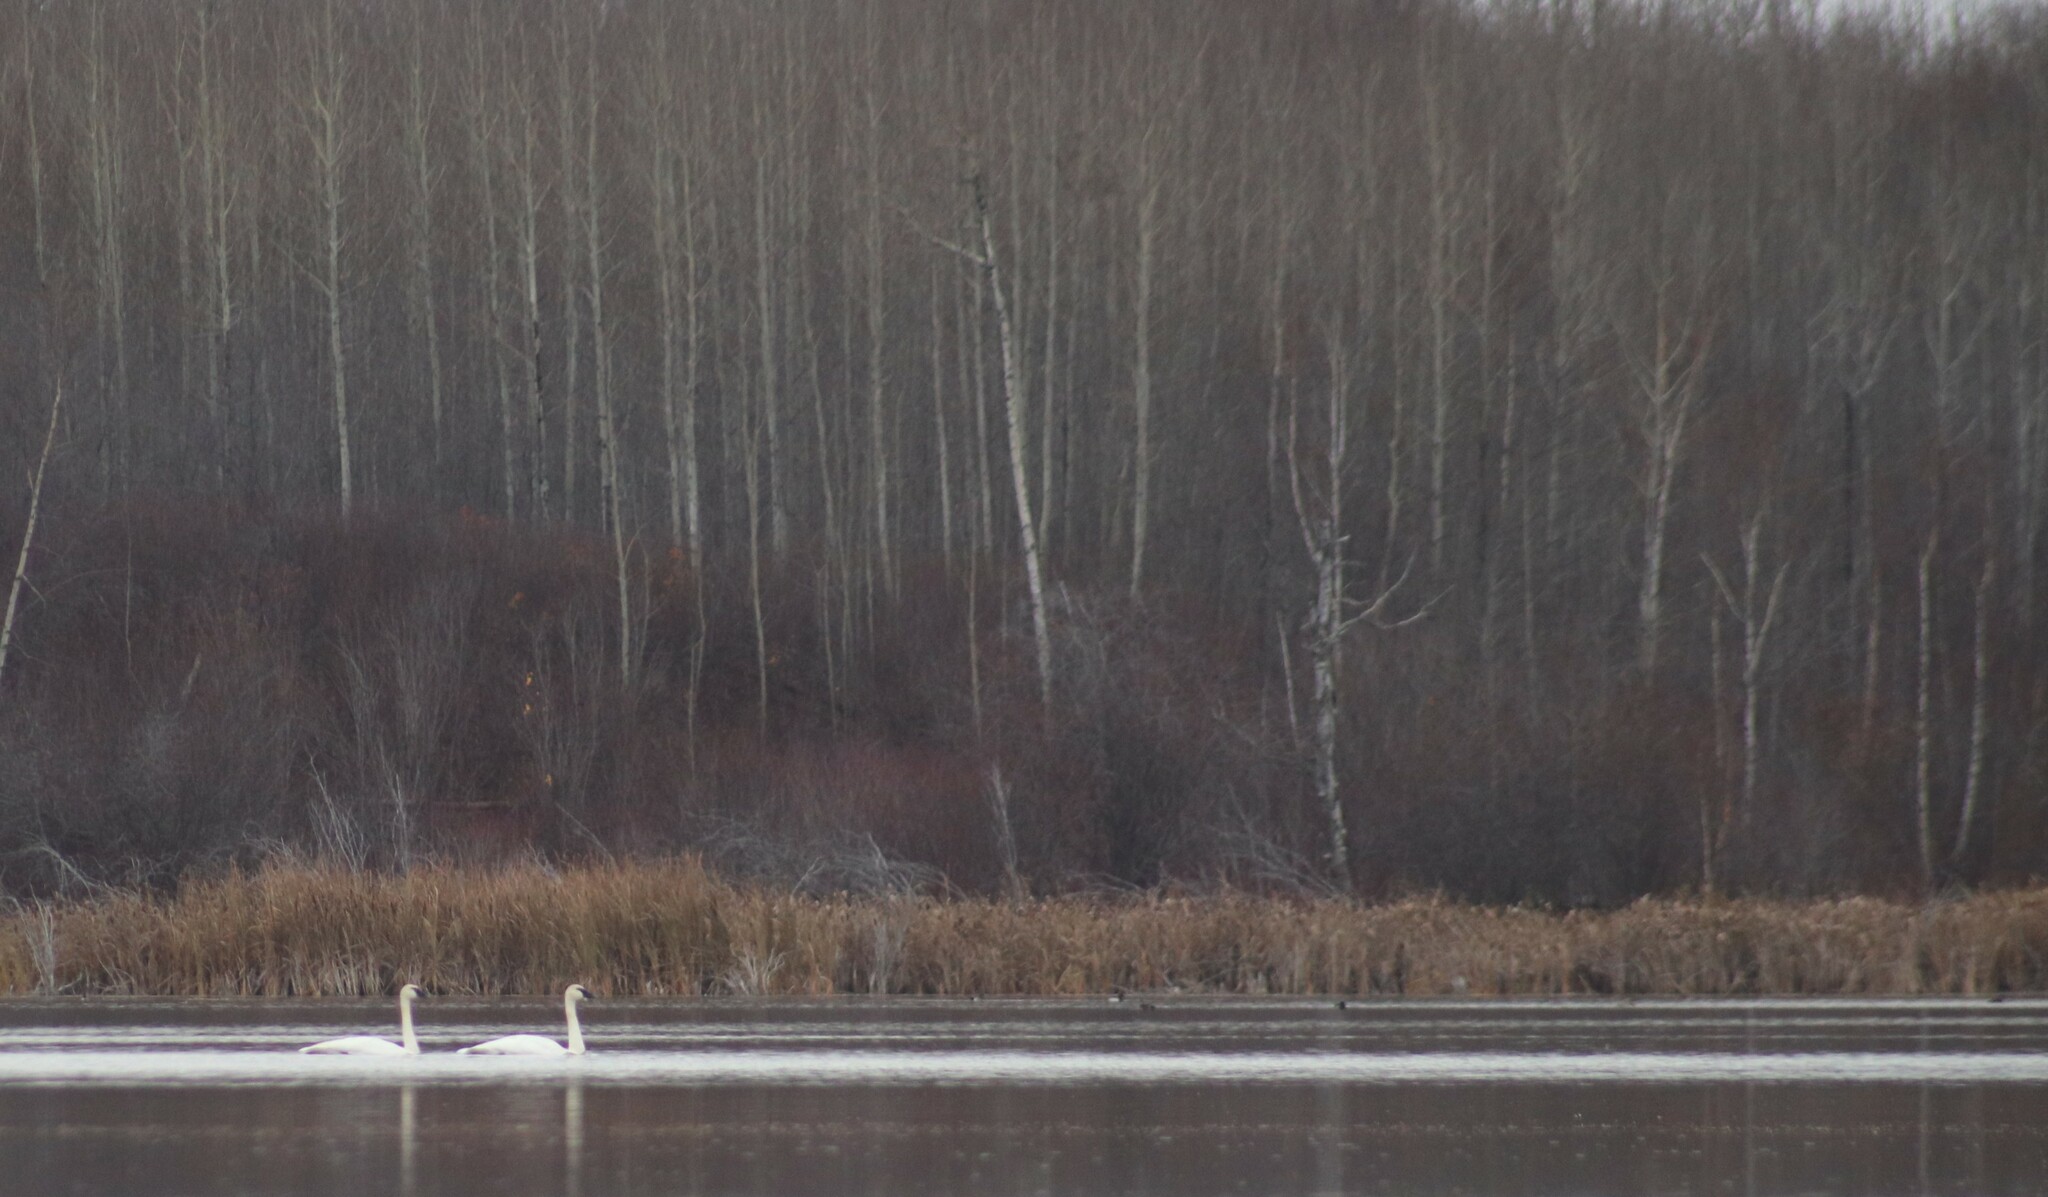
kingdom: Animalia
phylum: Chordata
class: Aves
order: Anseriformes
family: Anatidae
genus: Cygnus
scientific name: Cygnus buccinator
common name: Trumpeter swan
